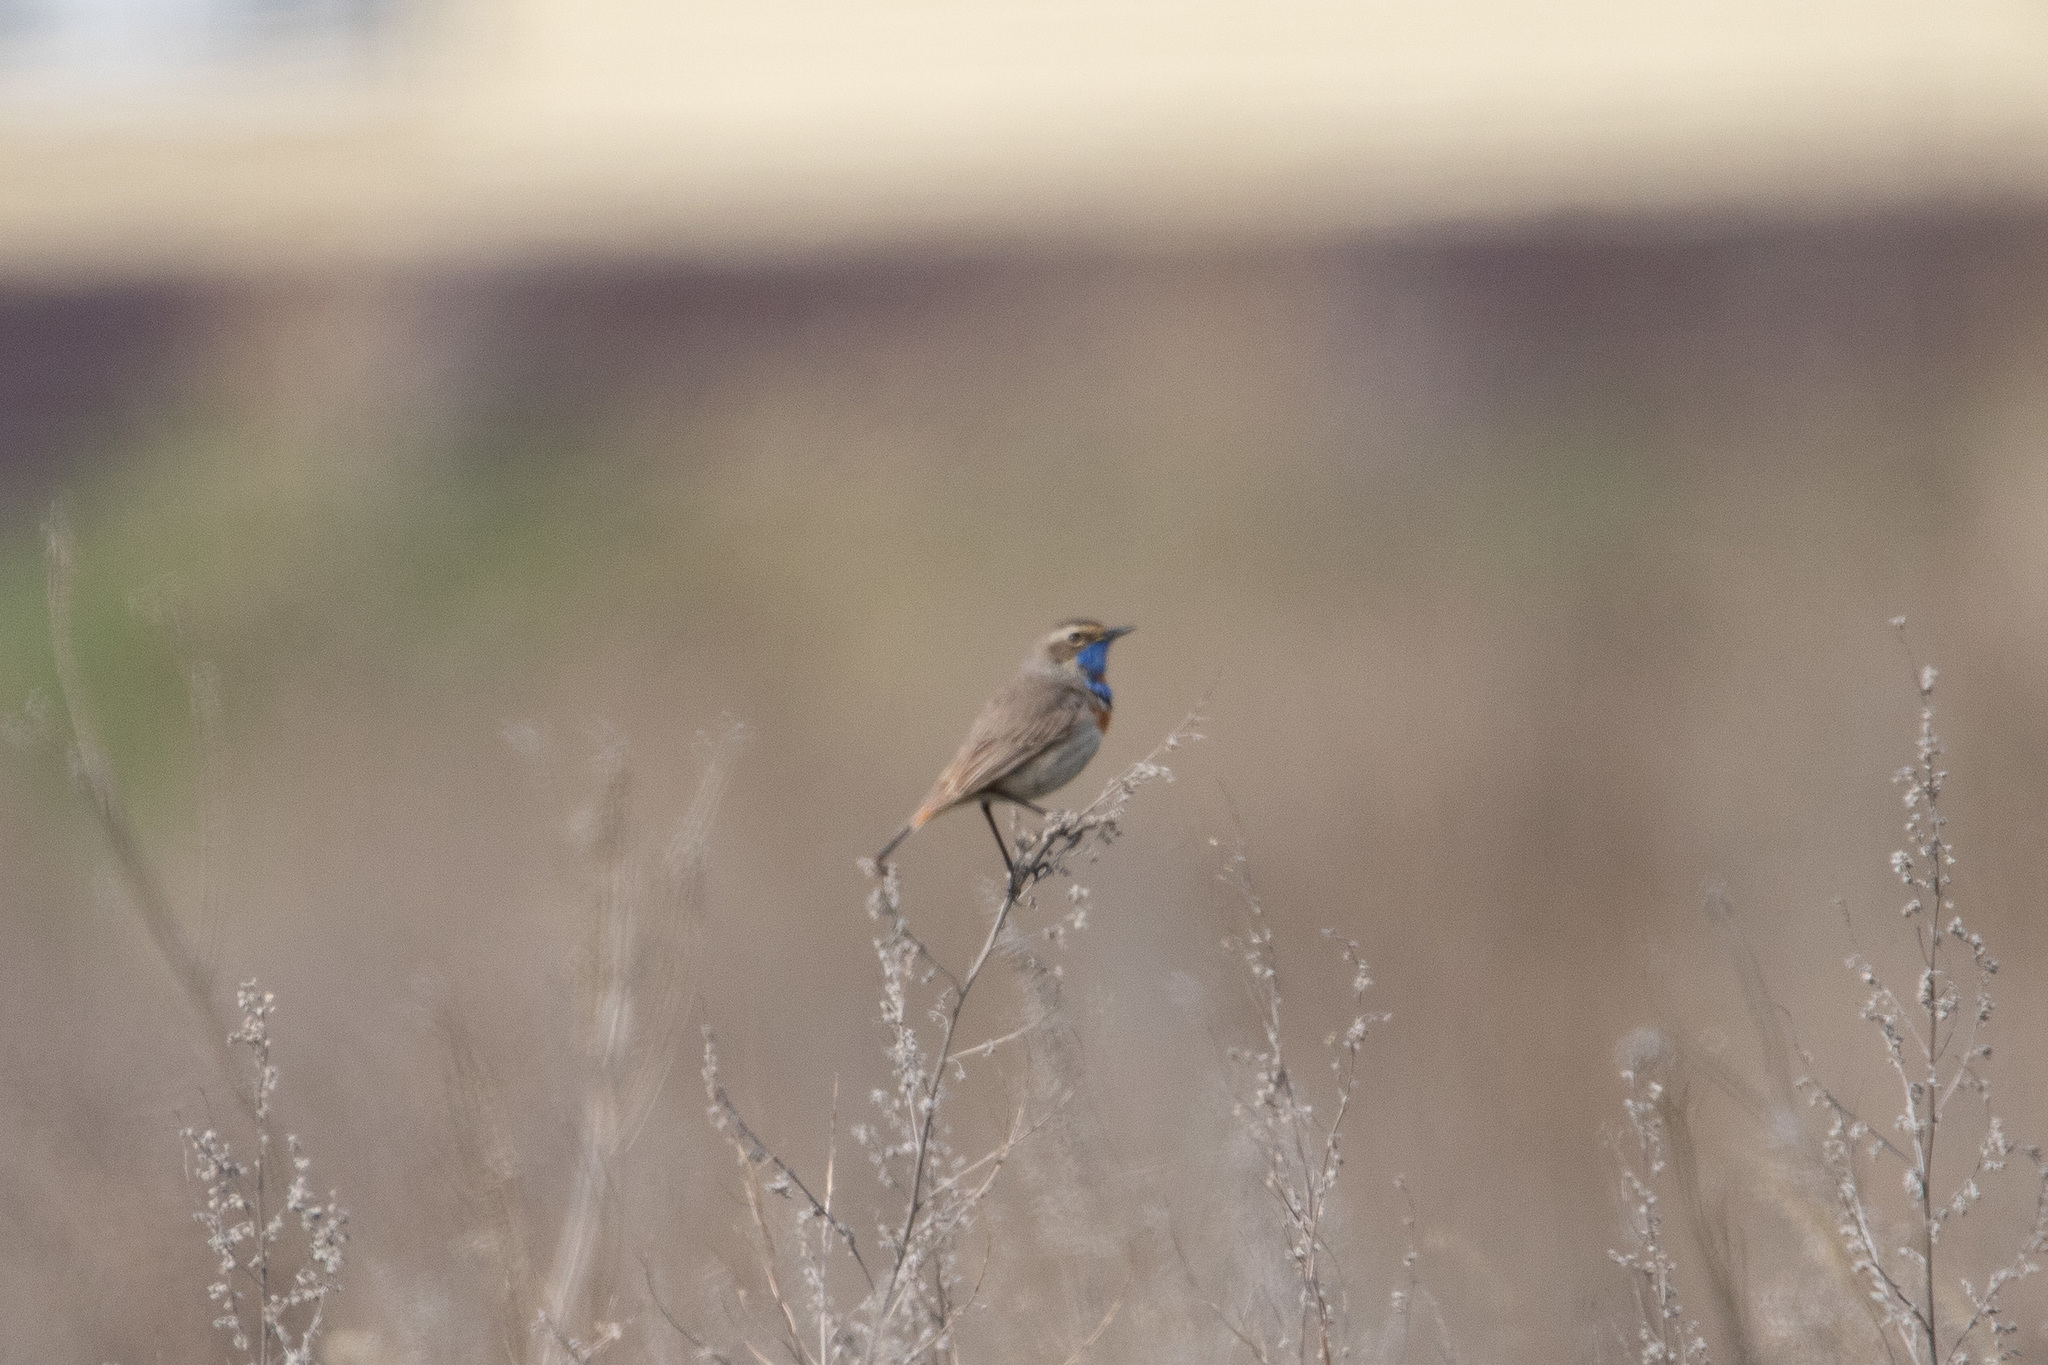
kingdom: Animalia
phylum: Chordata
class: Aves
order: Passeriformes
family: Muscicapidae
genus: Luscinia
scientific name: Luscinia svecica
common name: Bluethroat
